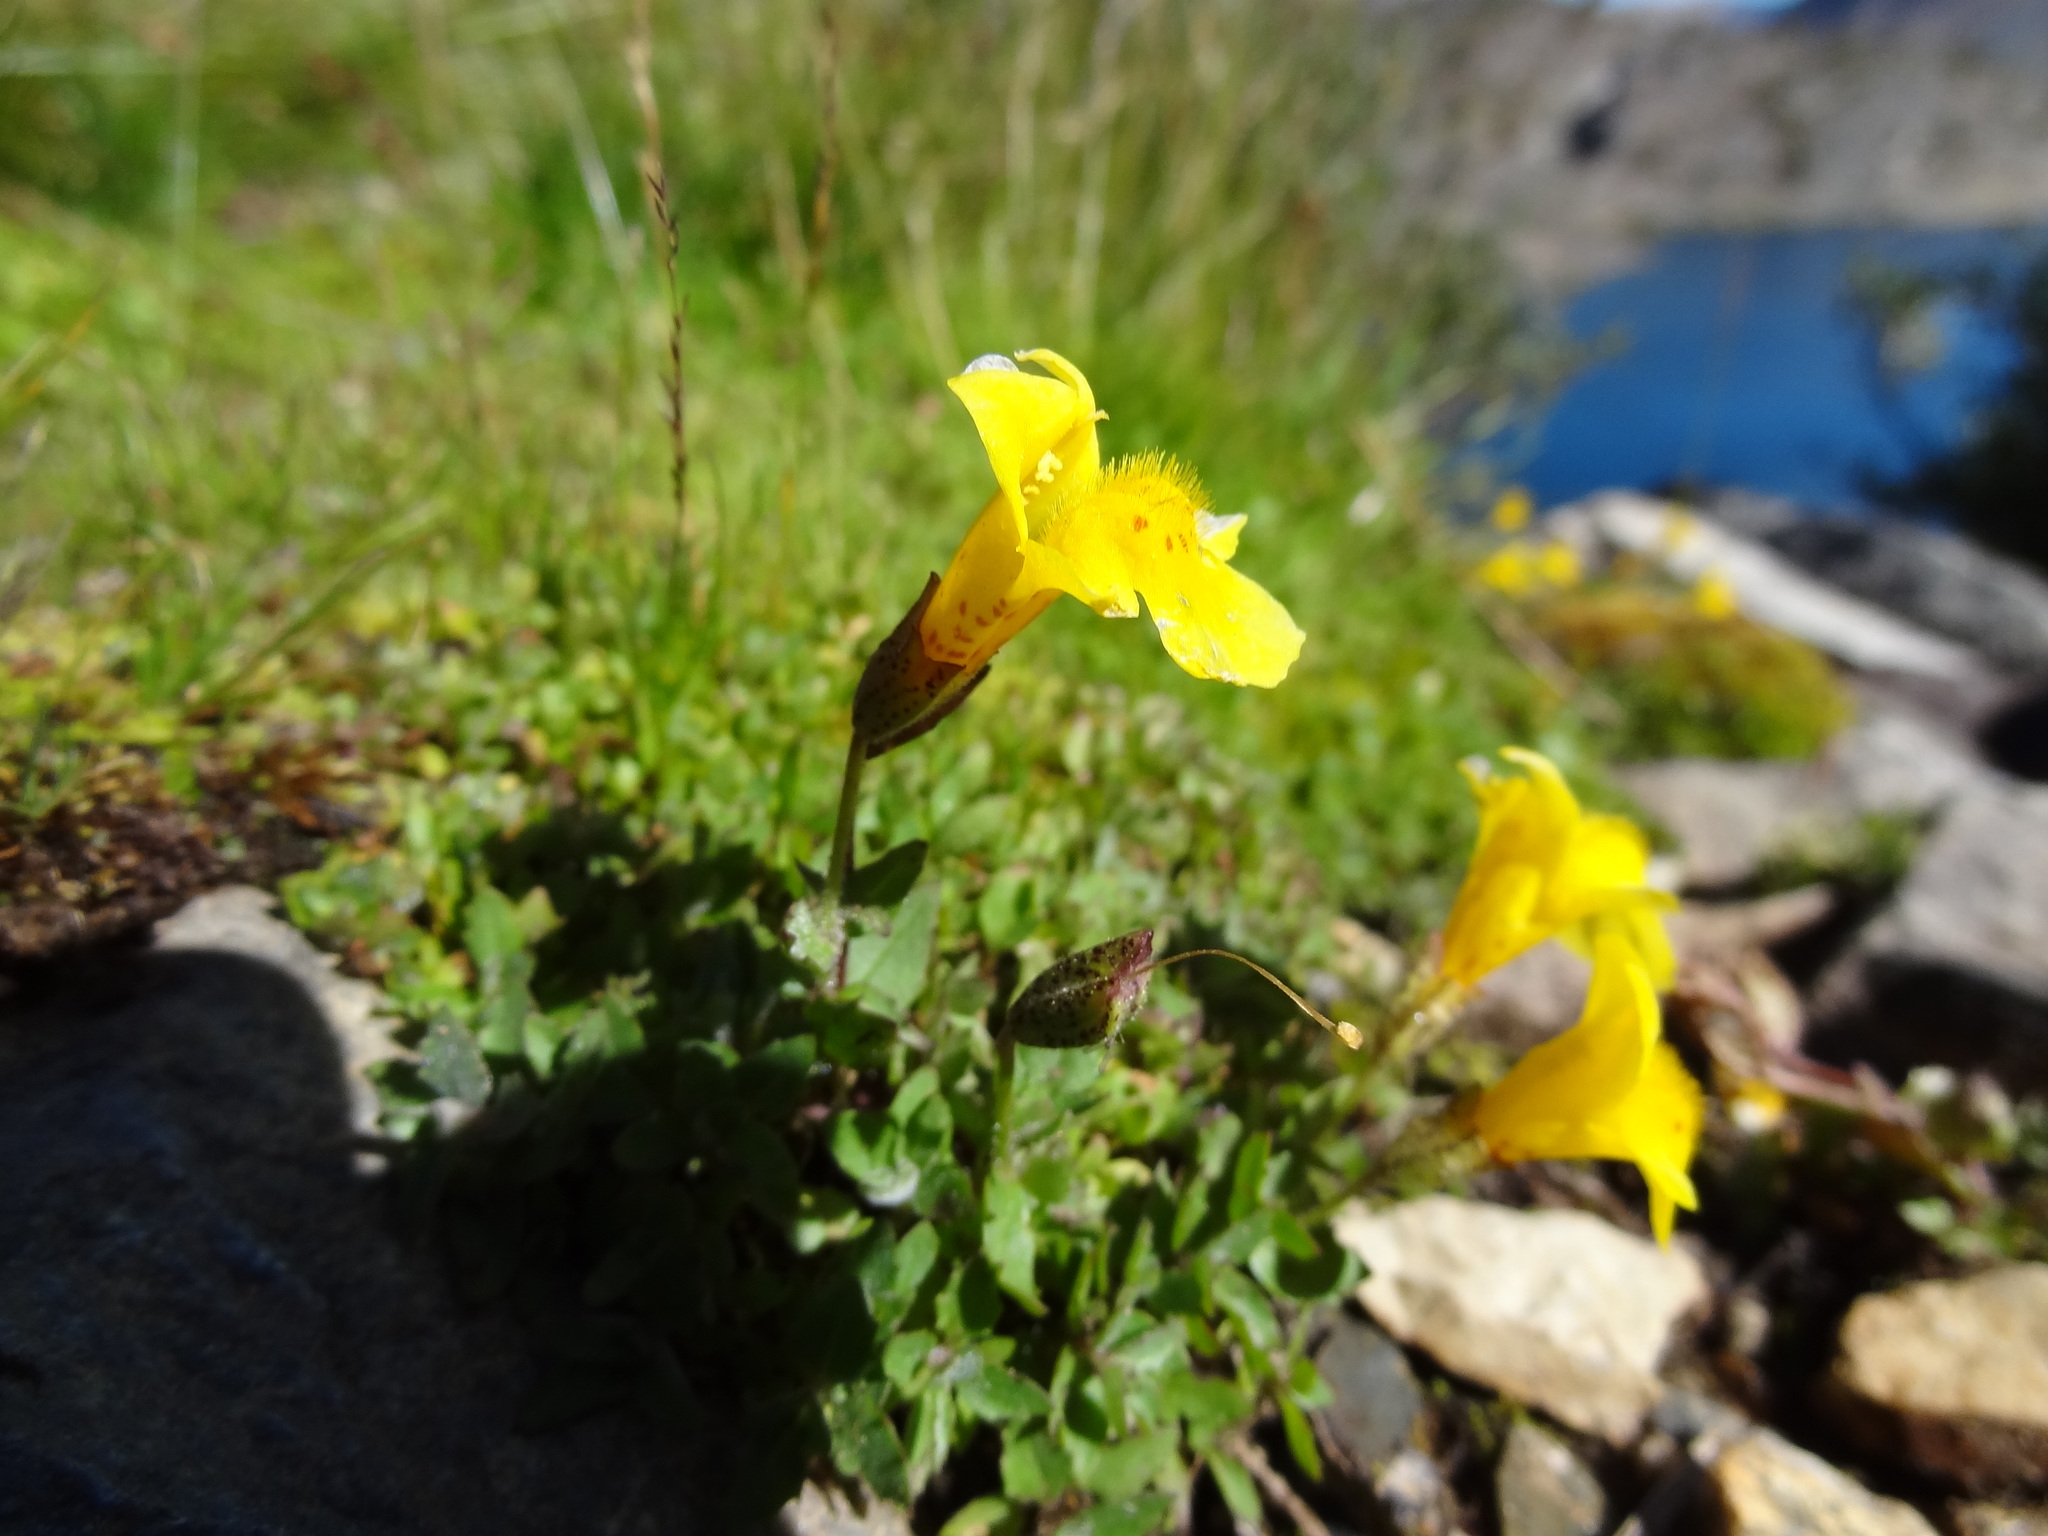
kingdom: Plantae
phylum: Tracheophyta
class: Magnoliopsida
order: Lamiales
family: Phrymaceae
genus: Erythranthe
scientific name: Erythranthe tilingii
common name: Subalpine monkey-flower
